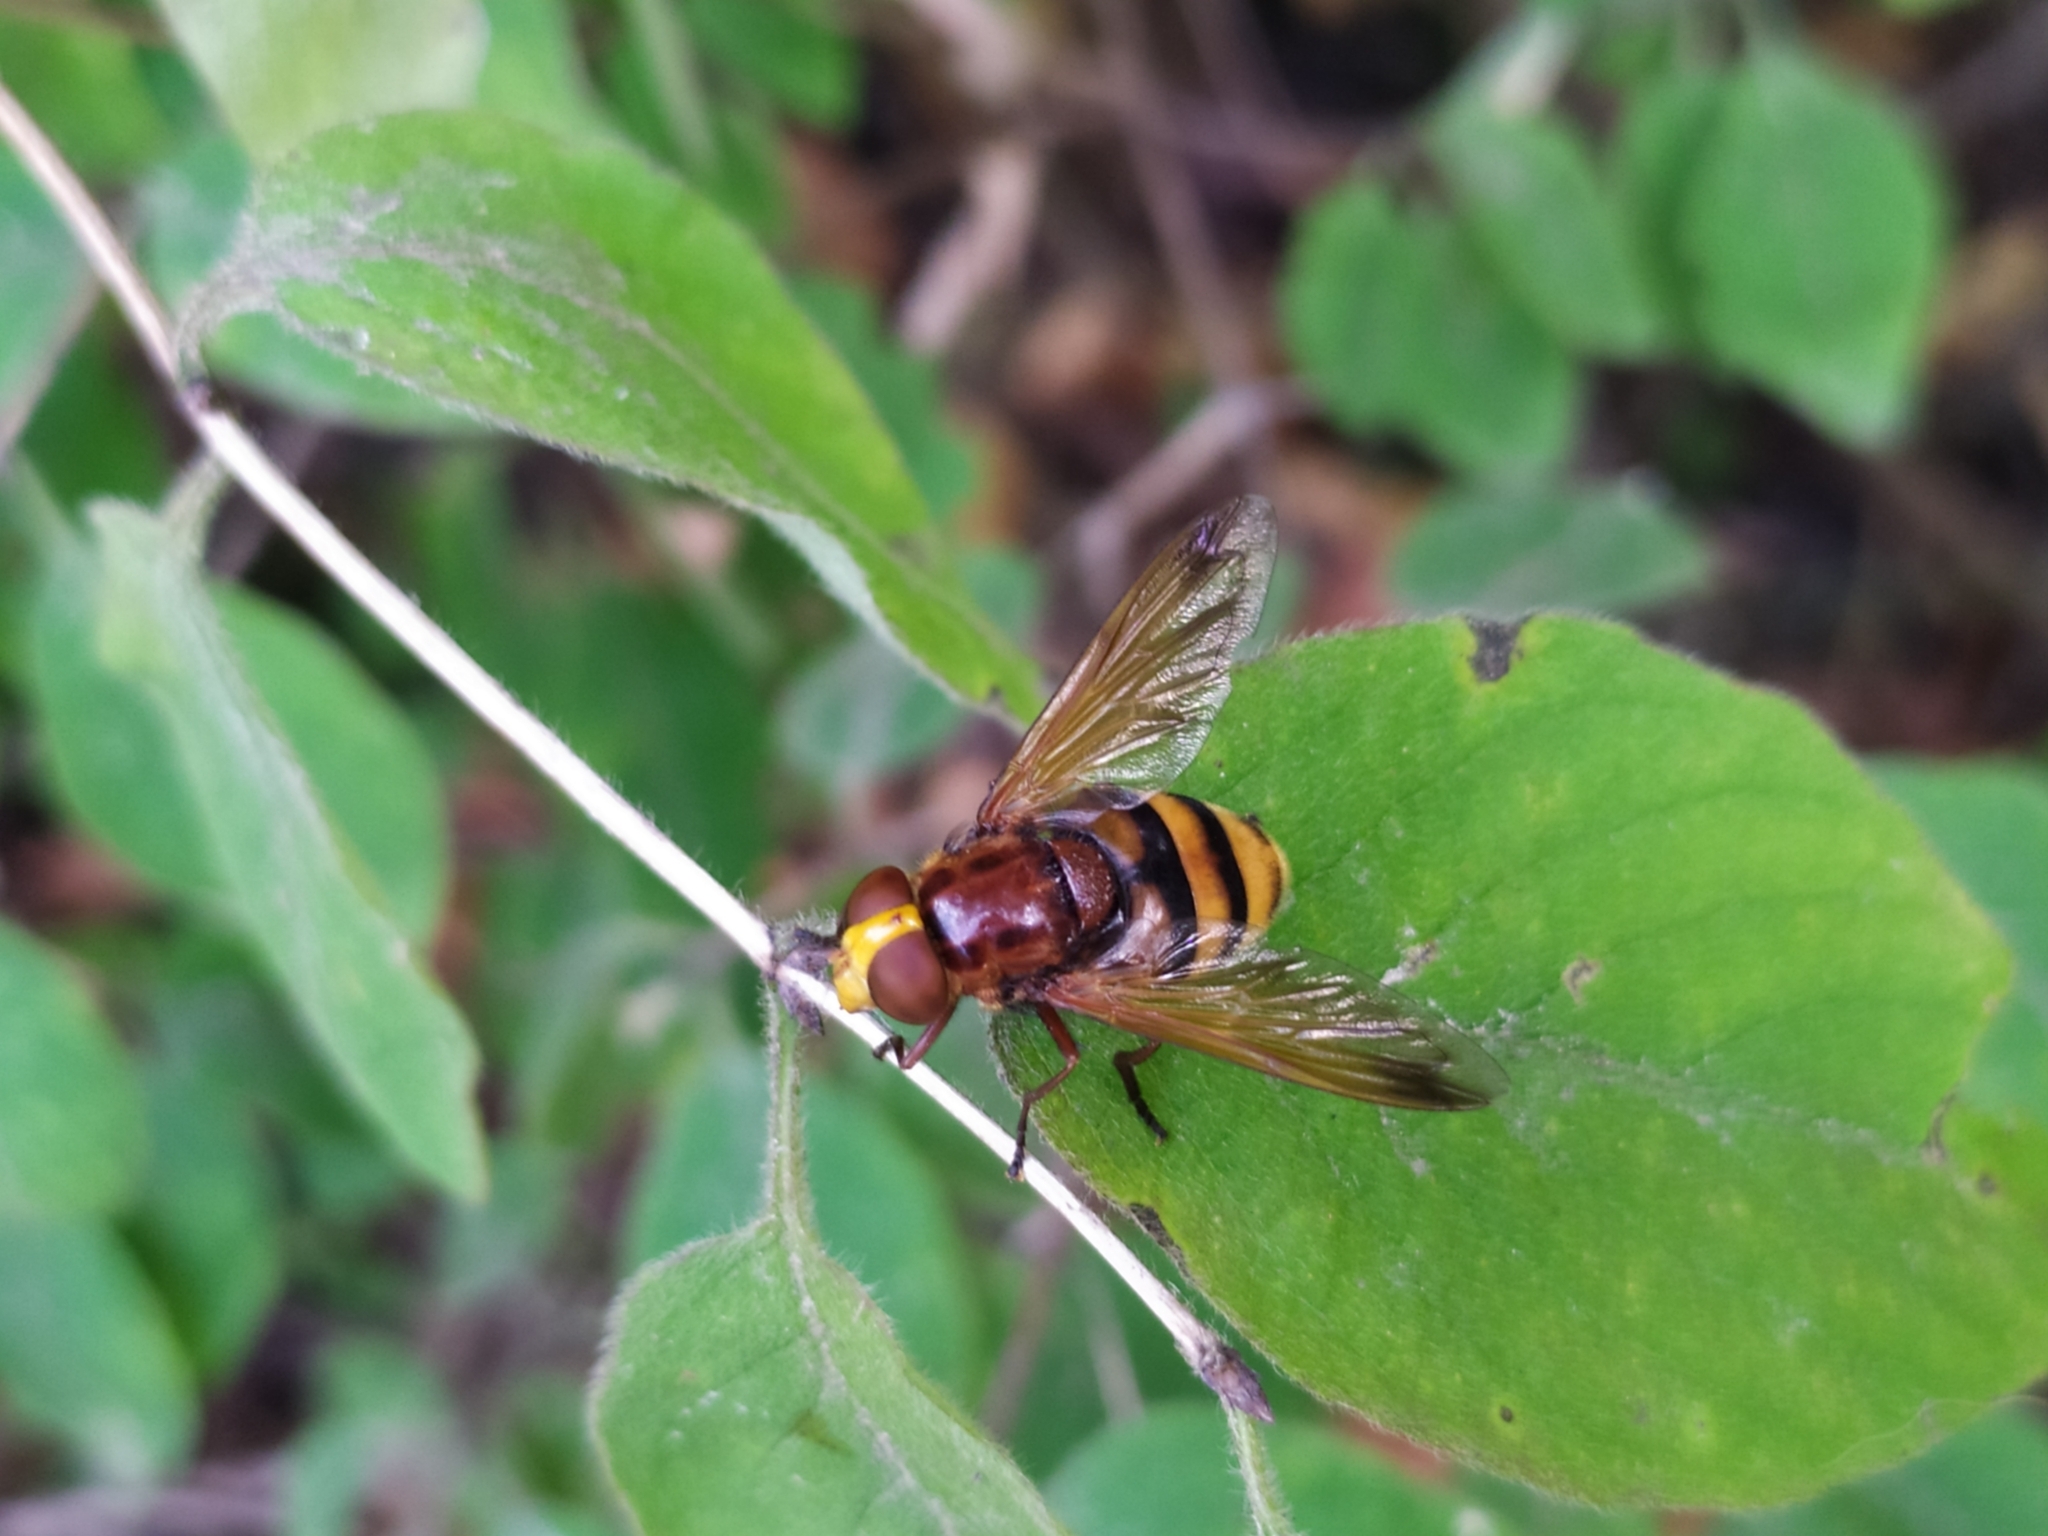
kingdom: Animalia
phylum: Arthropoda
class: Insecta
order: Diptera
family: Syrphidae
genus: Volucella
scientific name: Volucella zonaria
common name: Hornet hoverfly
